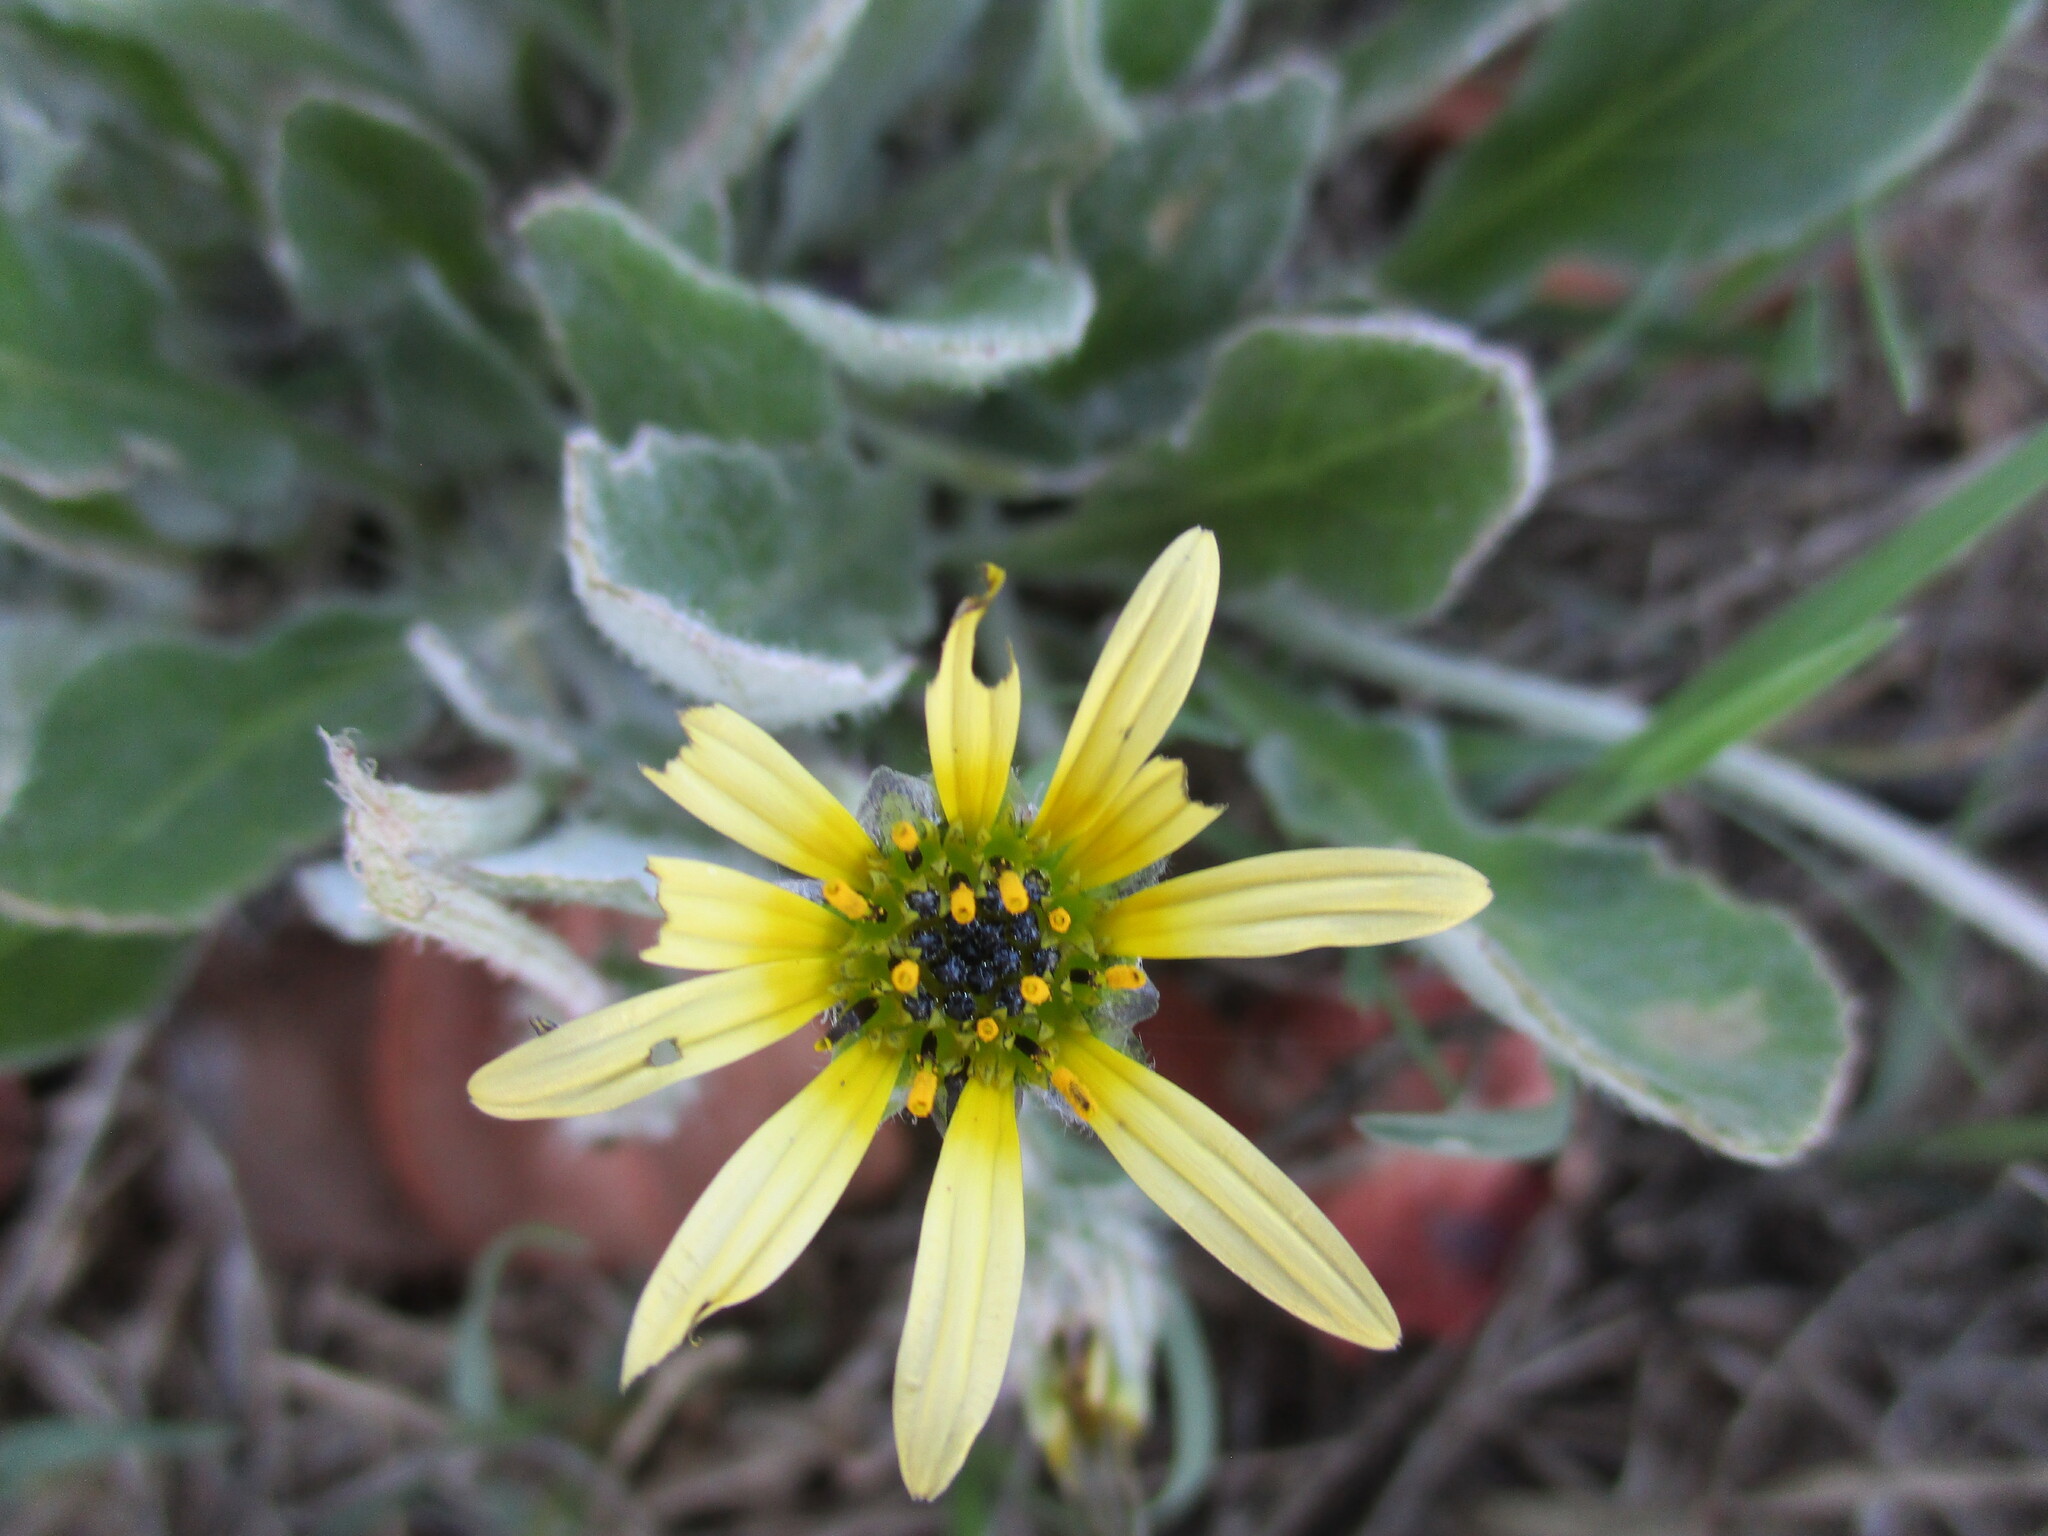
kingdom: Plantae
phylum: Tracheophyta
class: Magnoliopsida
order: Asterales
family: Asteraceae
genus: Arctotheca
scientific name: Arctotheca calendula
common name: Capeweed
